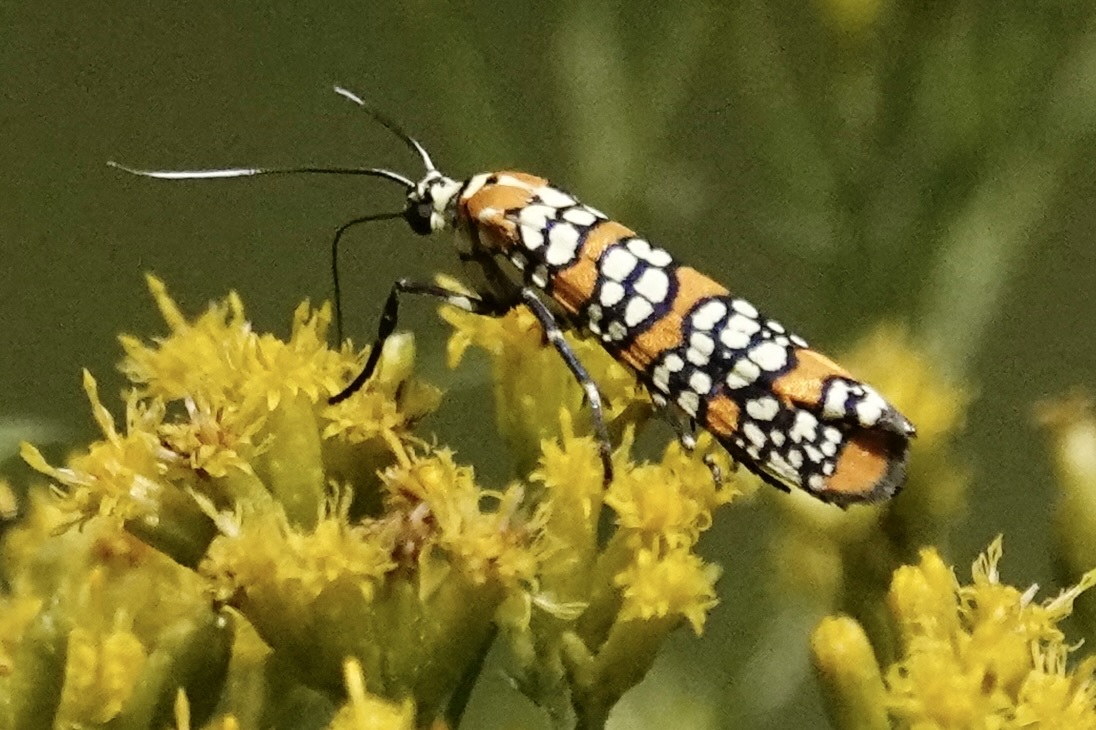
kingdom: Animalia
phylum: Arthropoda
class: Insecta
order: Lepidoptera
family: Attevidae
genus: Atteva
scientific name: Atteva punctella
